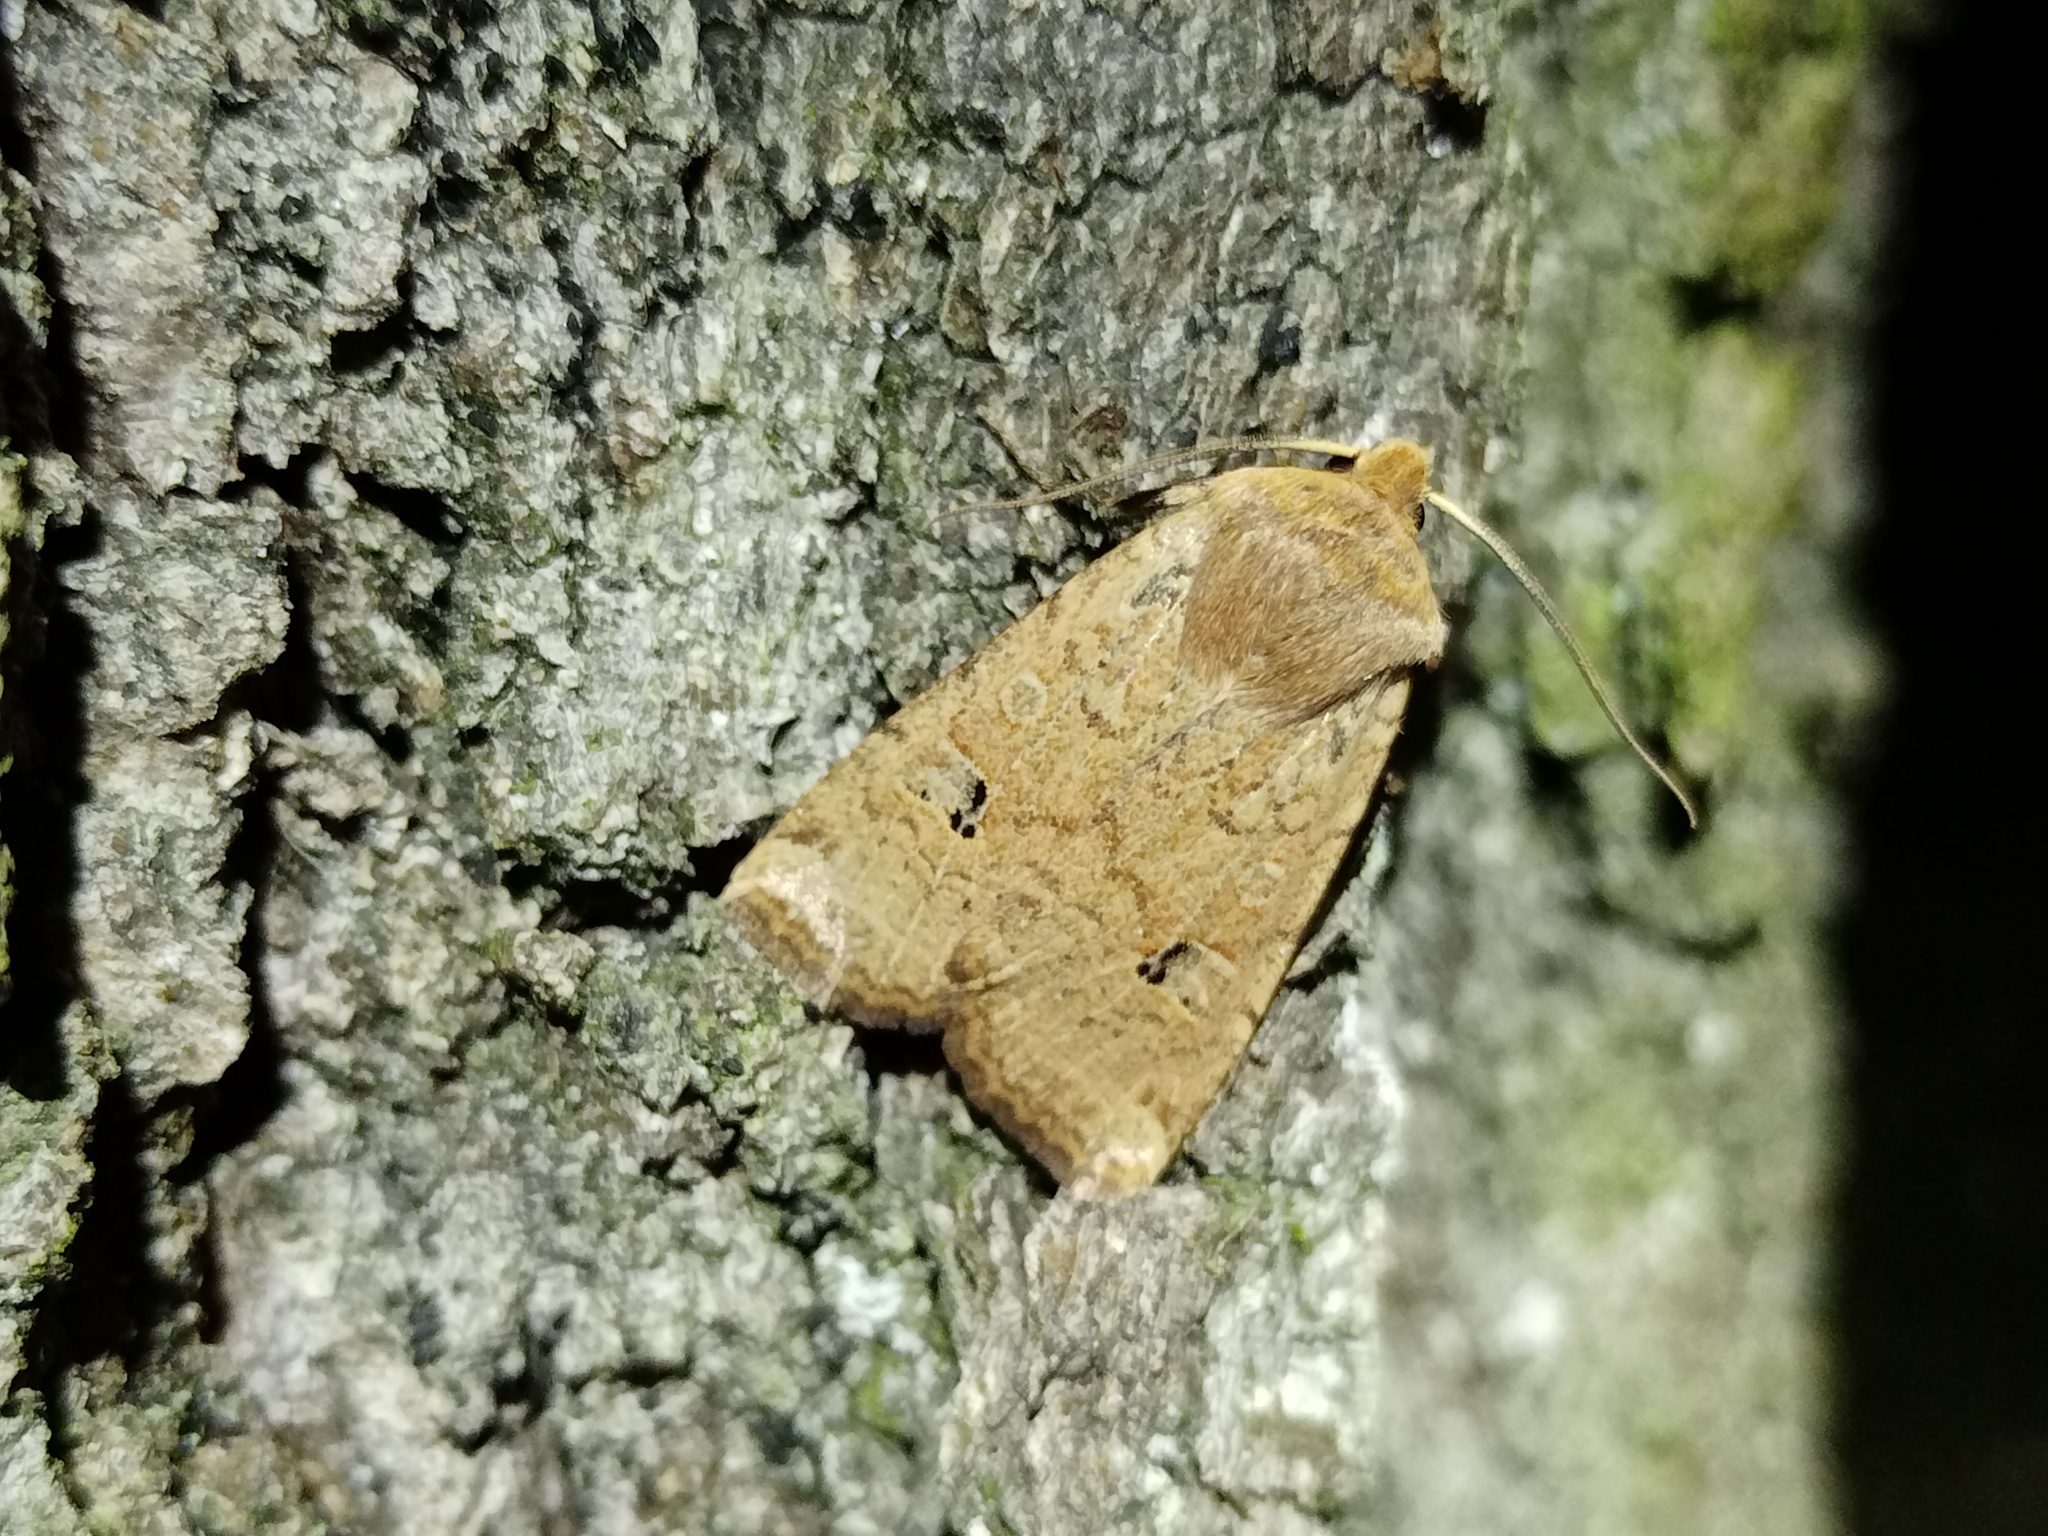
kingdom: Animalia
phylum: Arthropoda
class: Insecta
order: Lepidoptera
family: Noctuidae
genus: Conistra
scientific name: Conistra erythrocephala
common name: Red-headed chestnut
